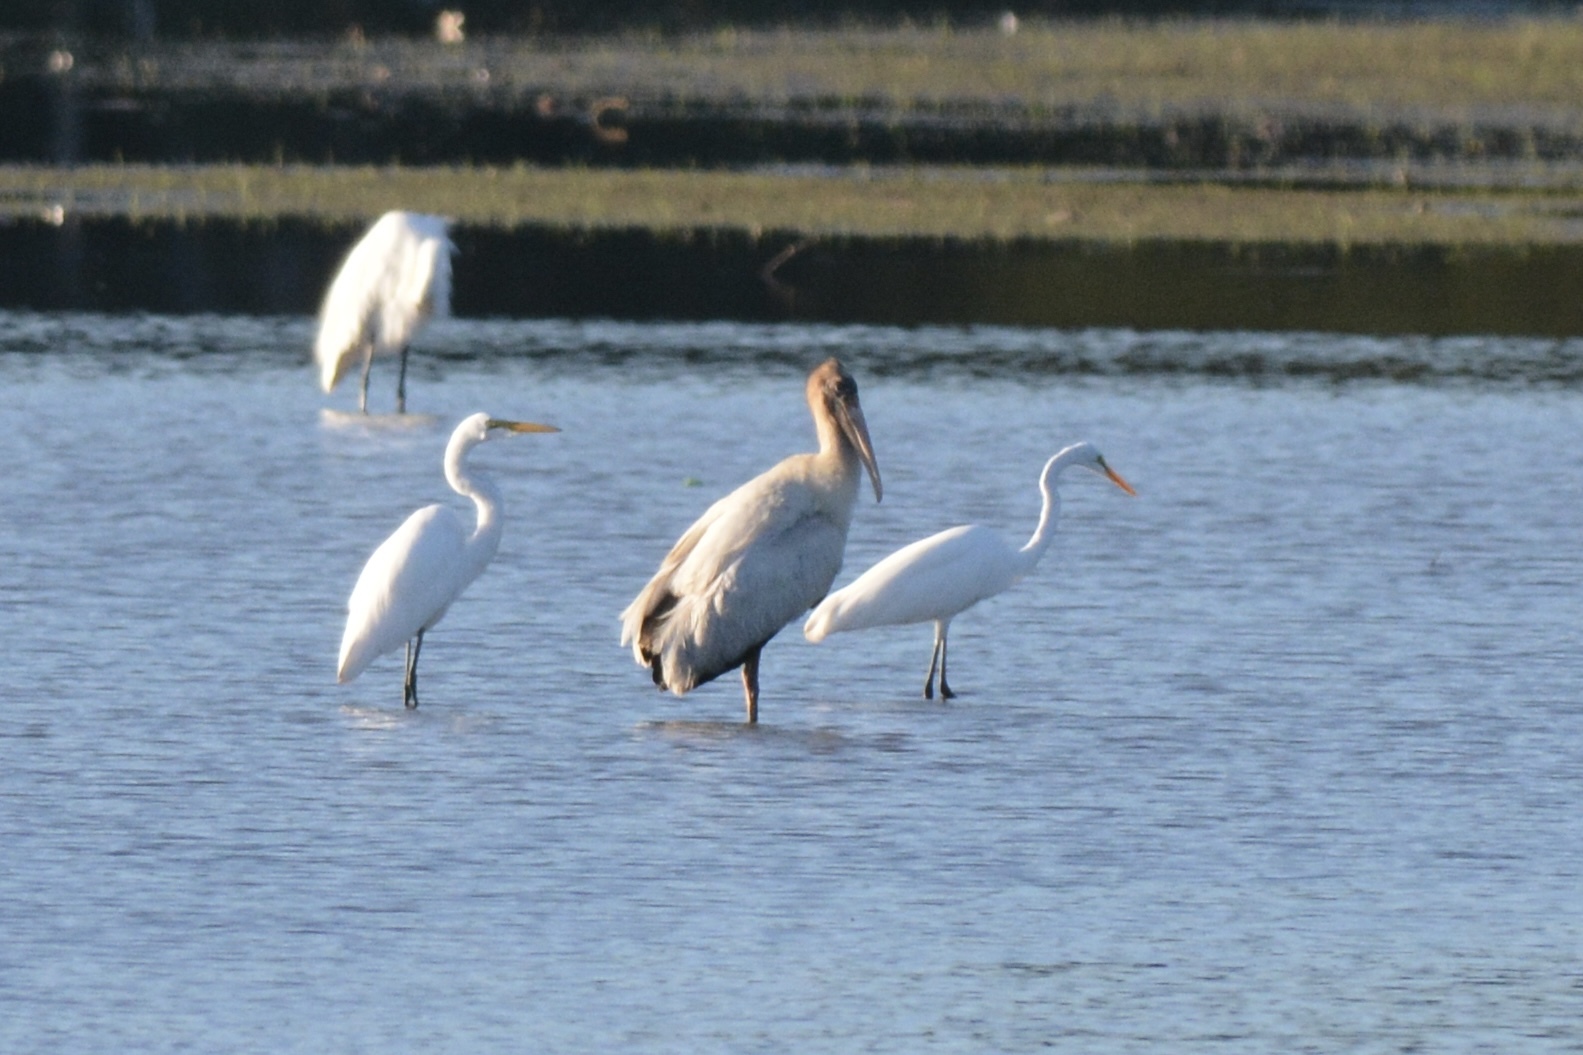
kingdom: Animalia
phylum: Chordata
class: Aves
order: Pelecaniformes
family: Ardeidae
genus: Ardea
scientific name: Ardea alba
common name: Great egret
